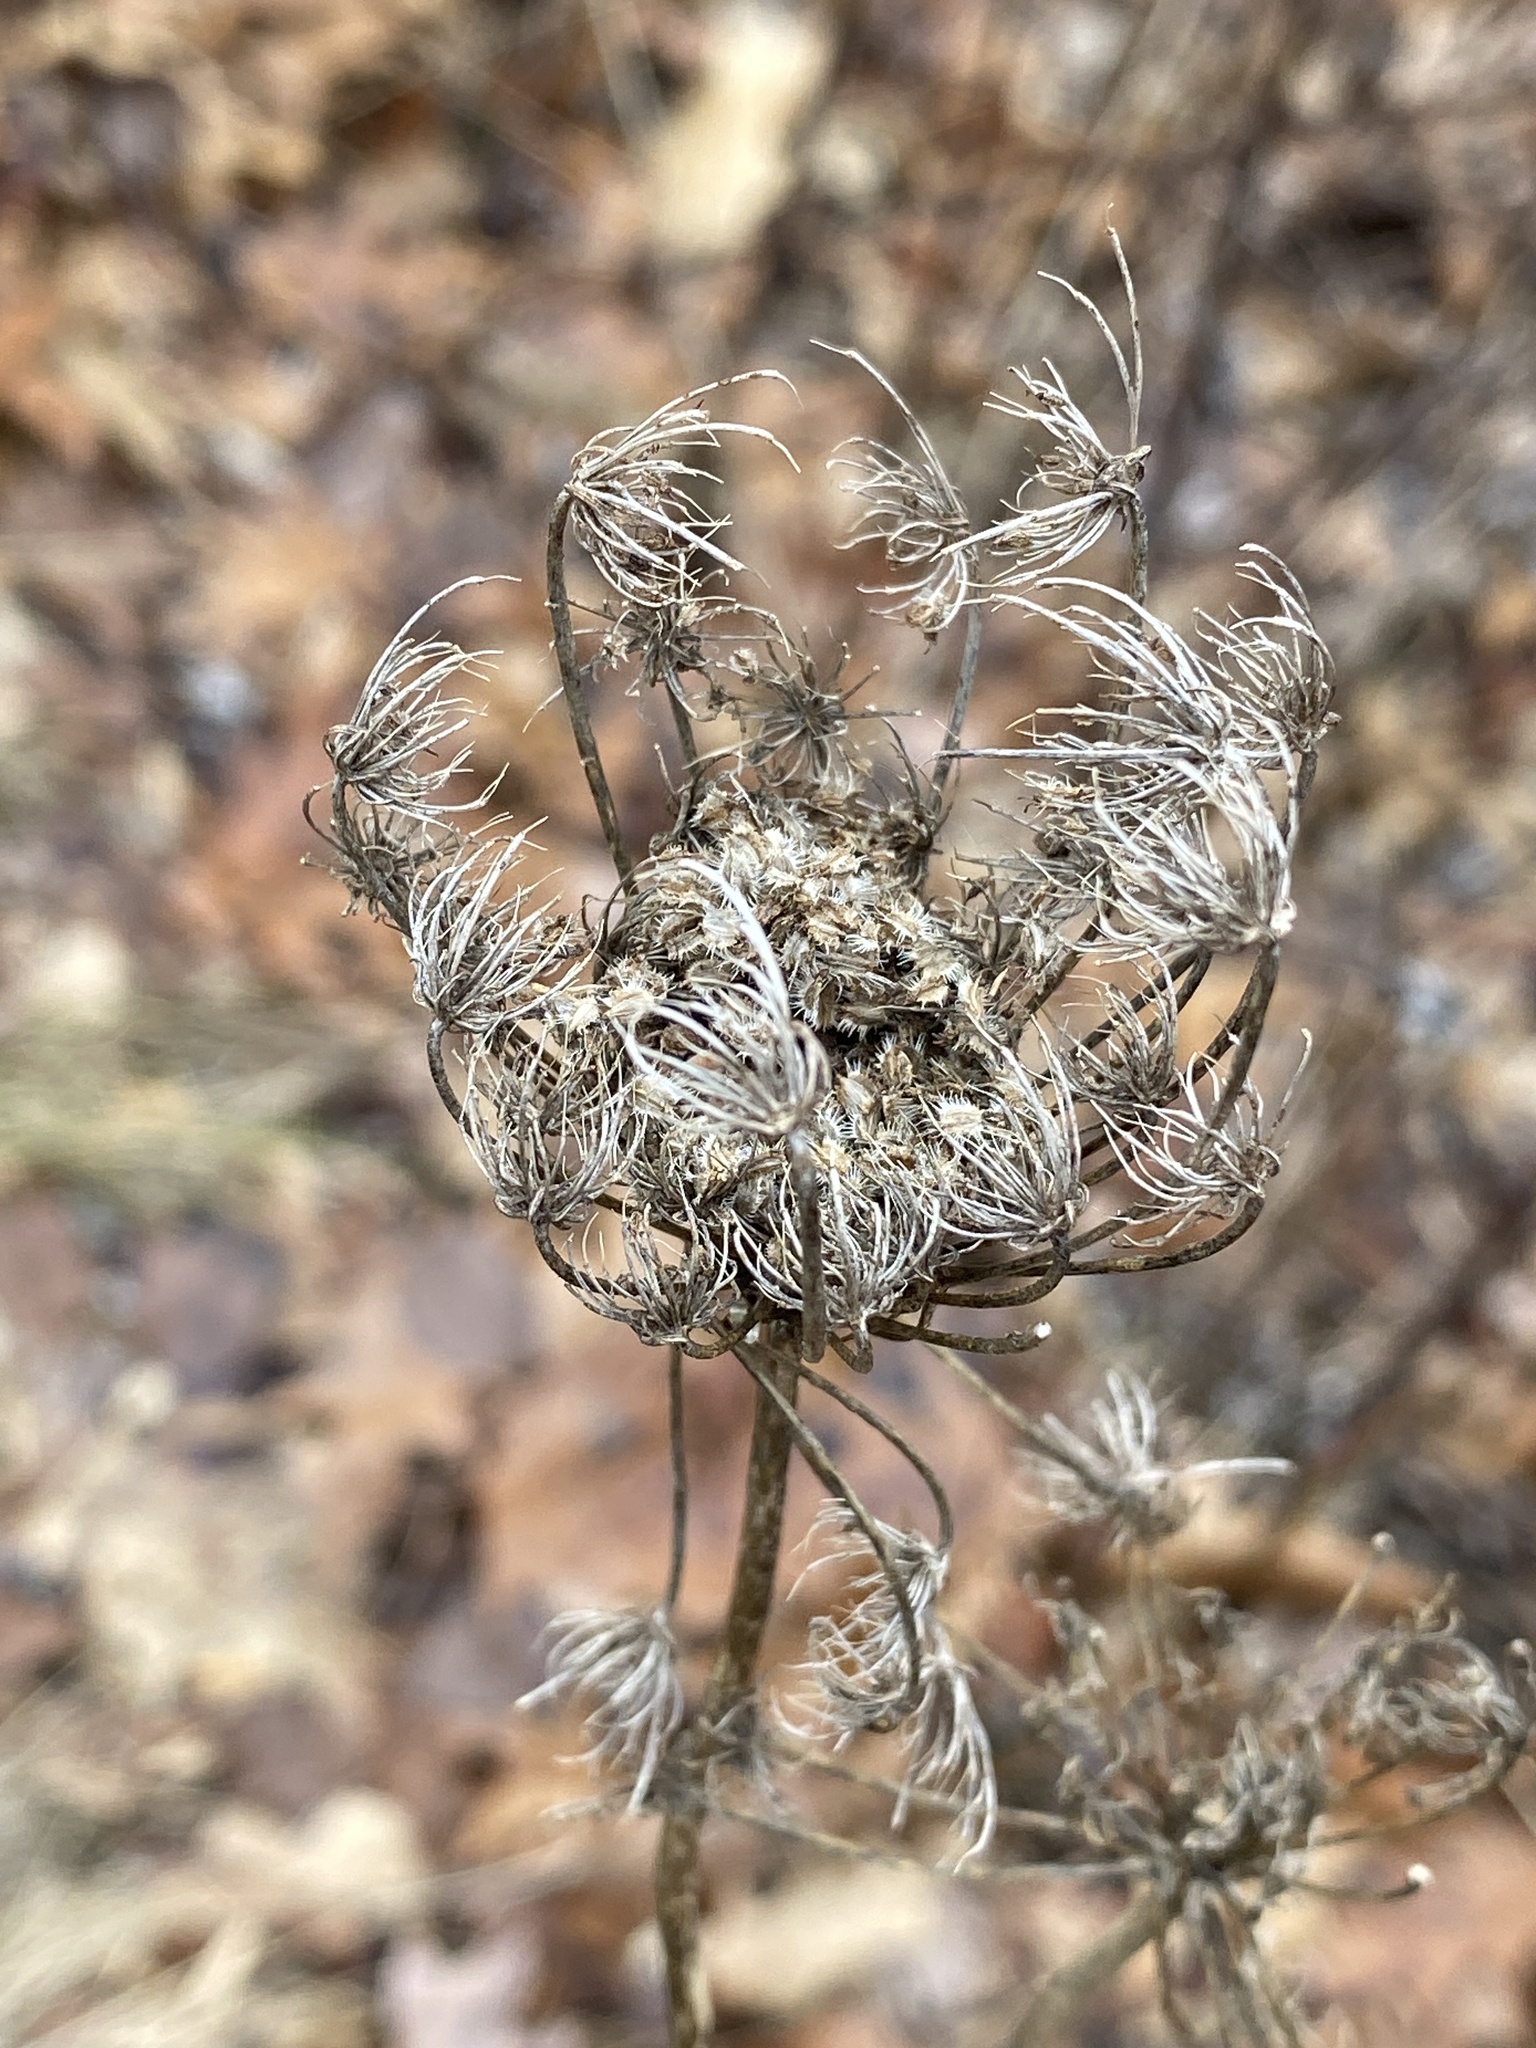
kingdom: Plantae
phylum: Tracheophyta
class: Magnoliopsida
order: Apiales
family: Apiaceae
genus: Daucus
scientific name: Daucus carota
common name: Wild carrot
